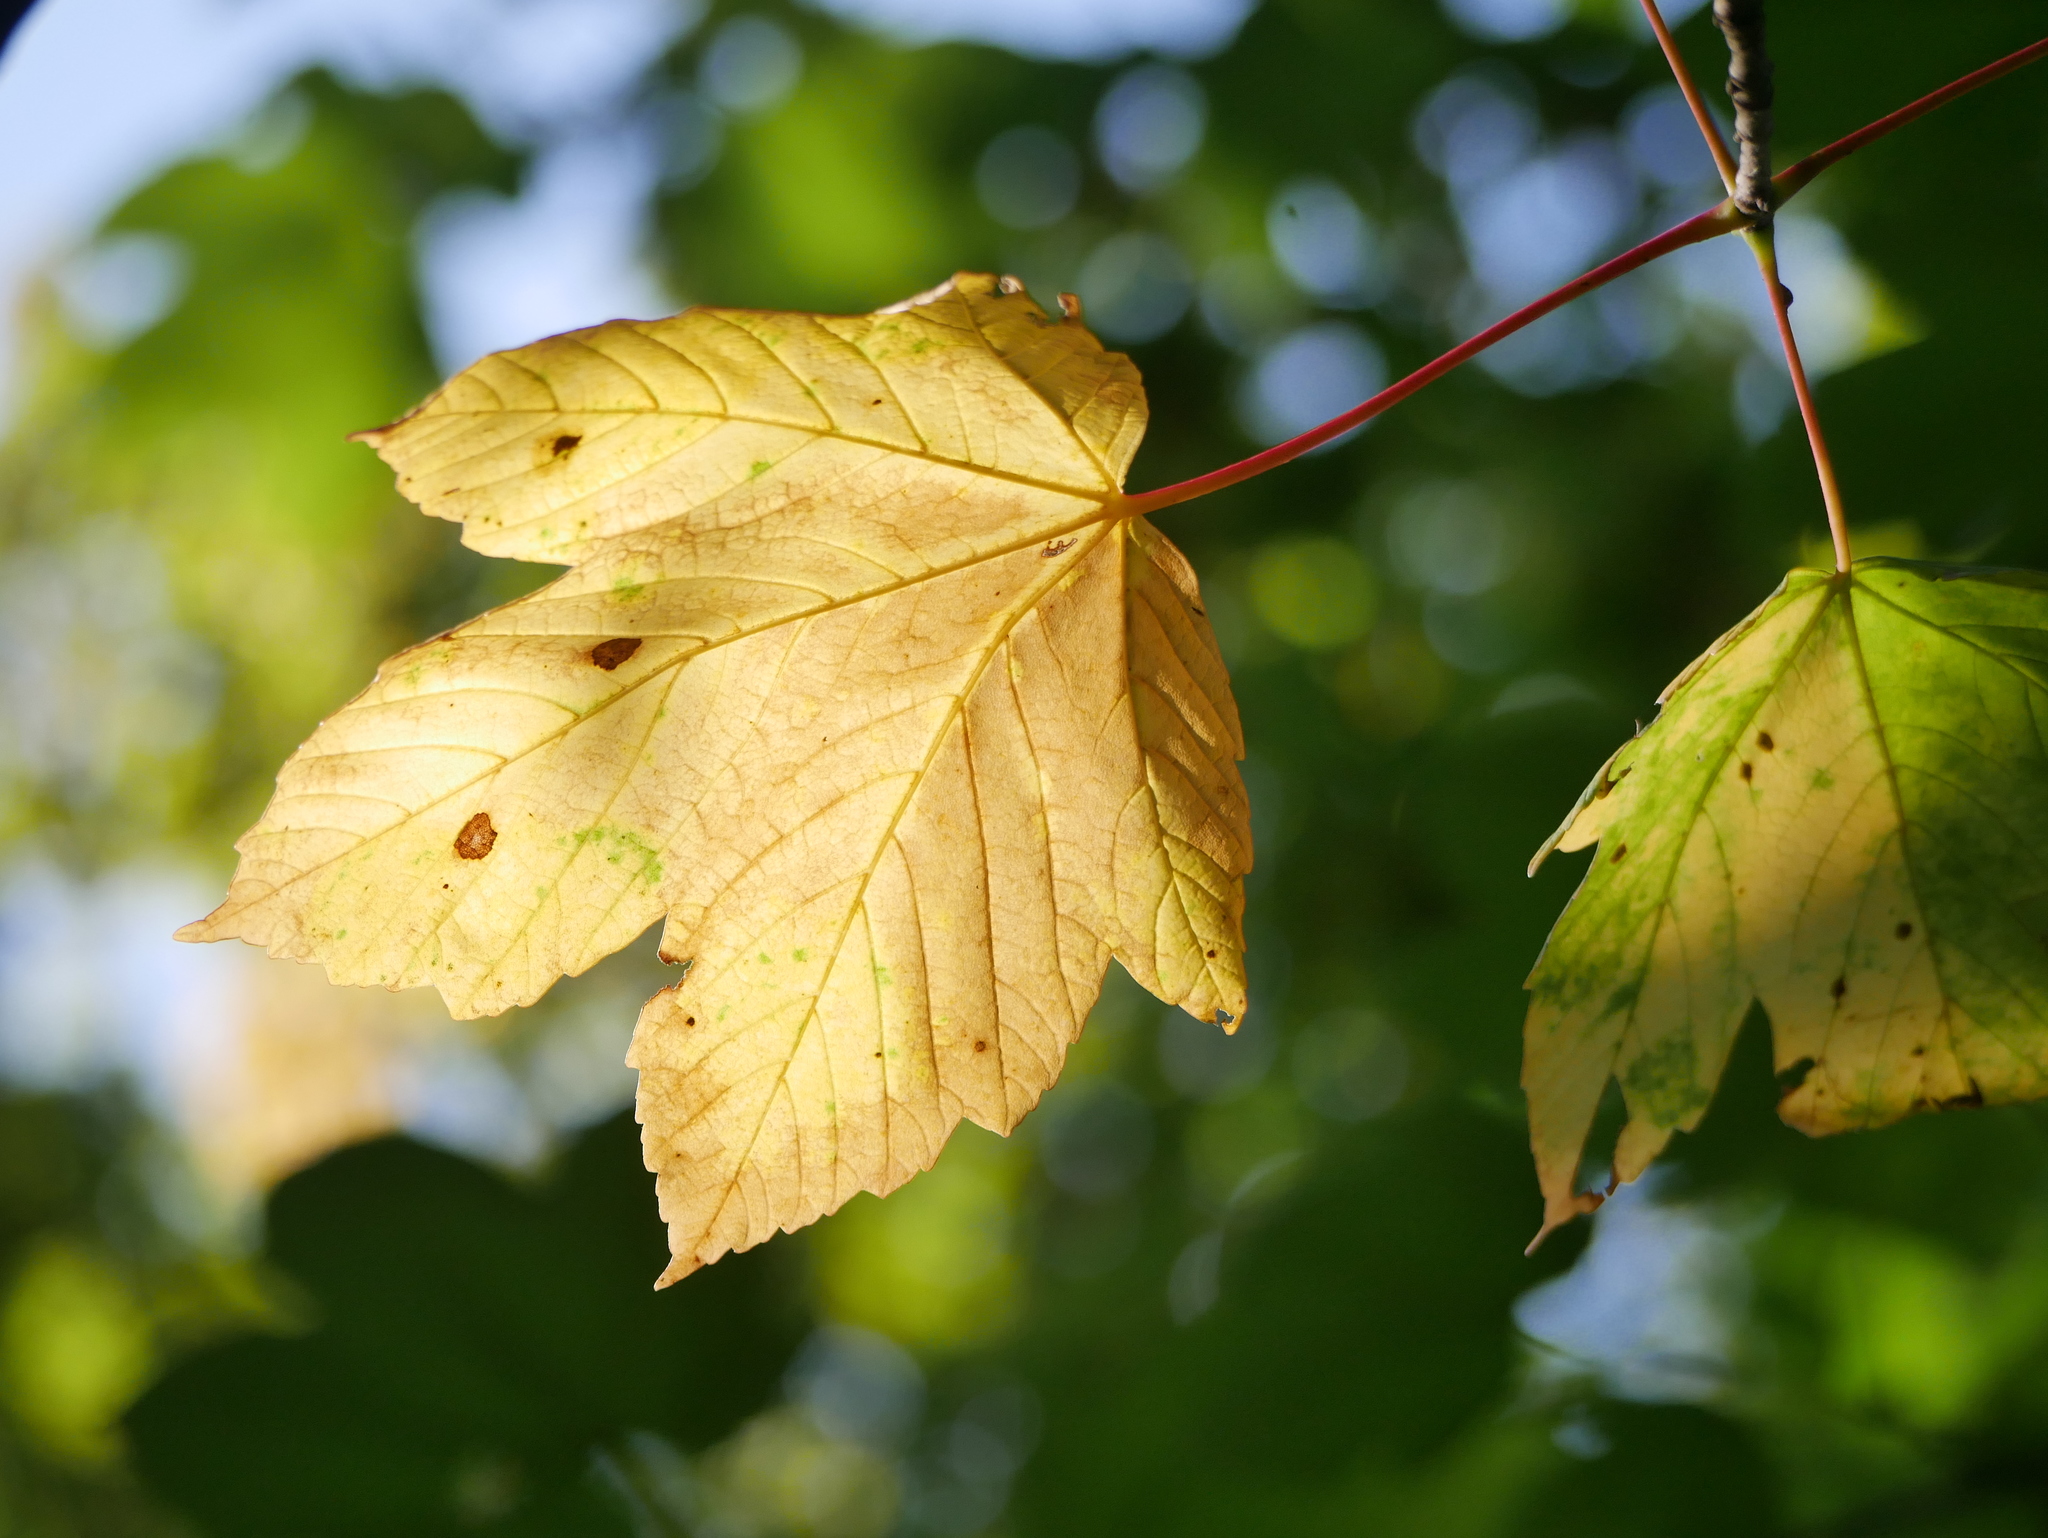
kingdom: Plantae
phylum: Tracheophyta
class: Magnoliopsida
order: Sapindales
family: Sapindaceae
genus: Acer
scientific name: Acer pseudoplatanus
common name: Sycamore
